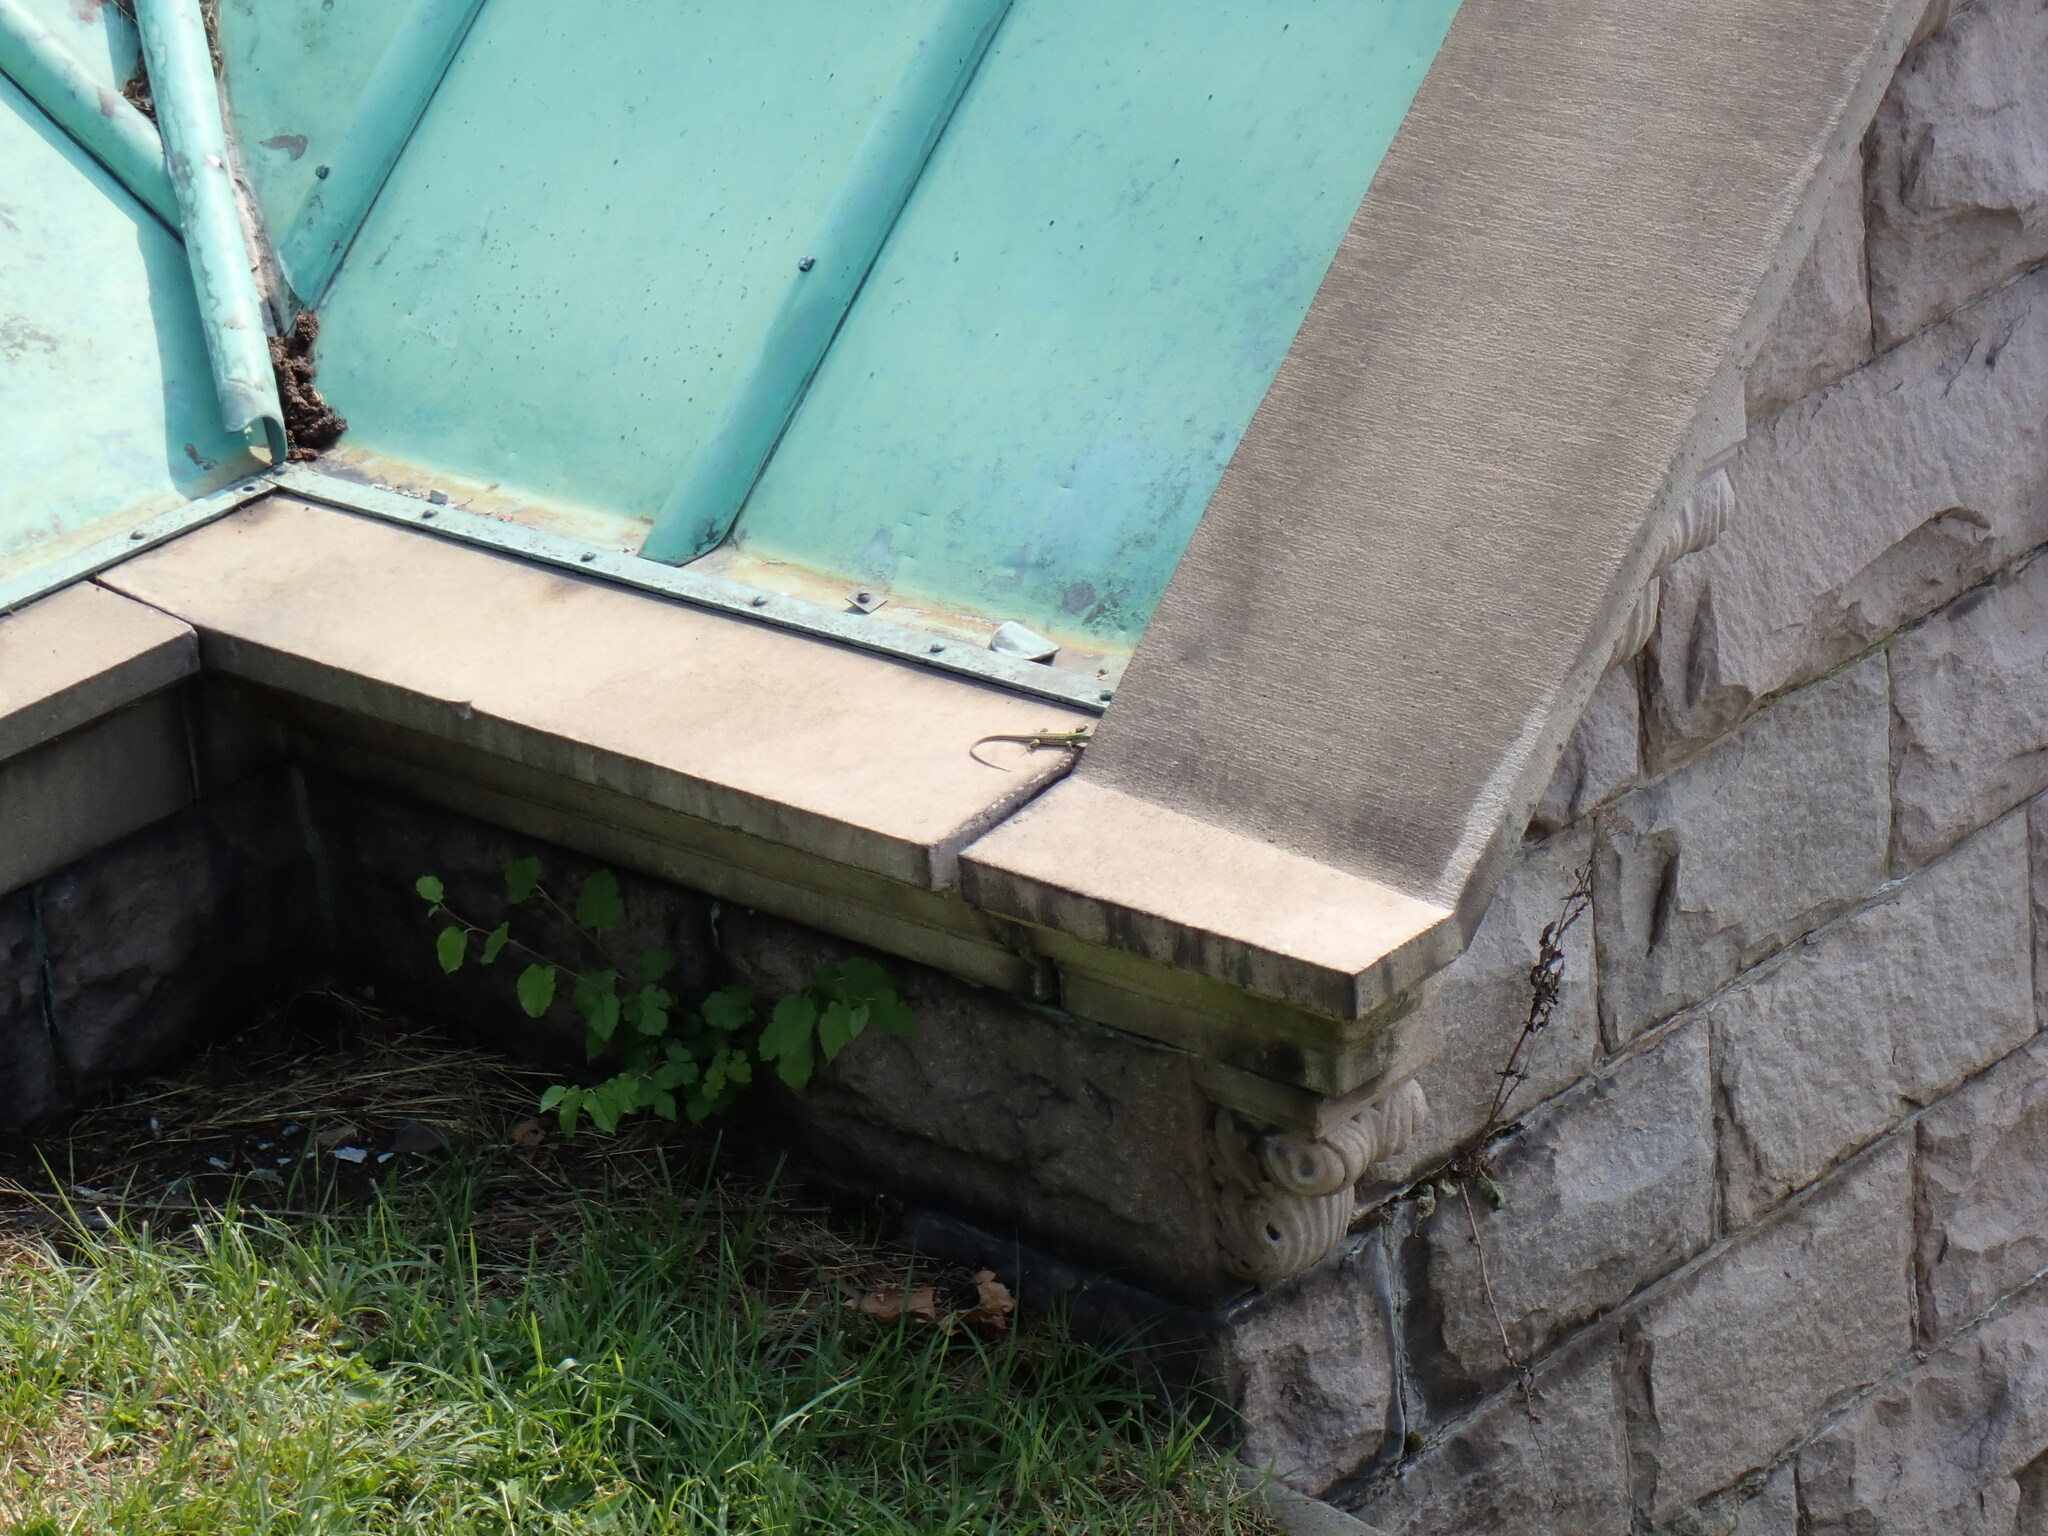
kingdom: Animalia
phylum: Chordata
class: Squamata
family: Lacertidae
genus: Podarcis
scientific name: Podarcis siculus
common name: Italian wall lizard
